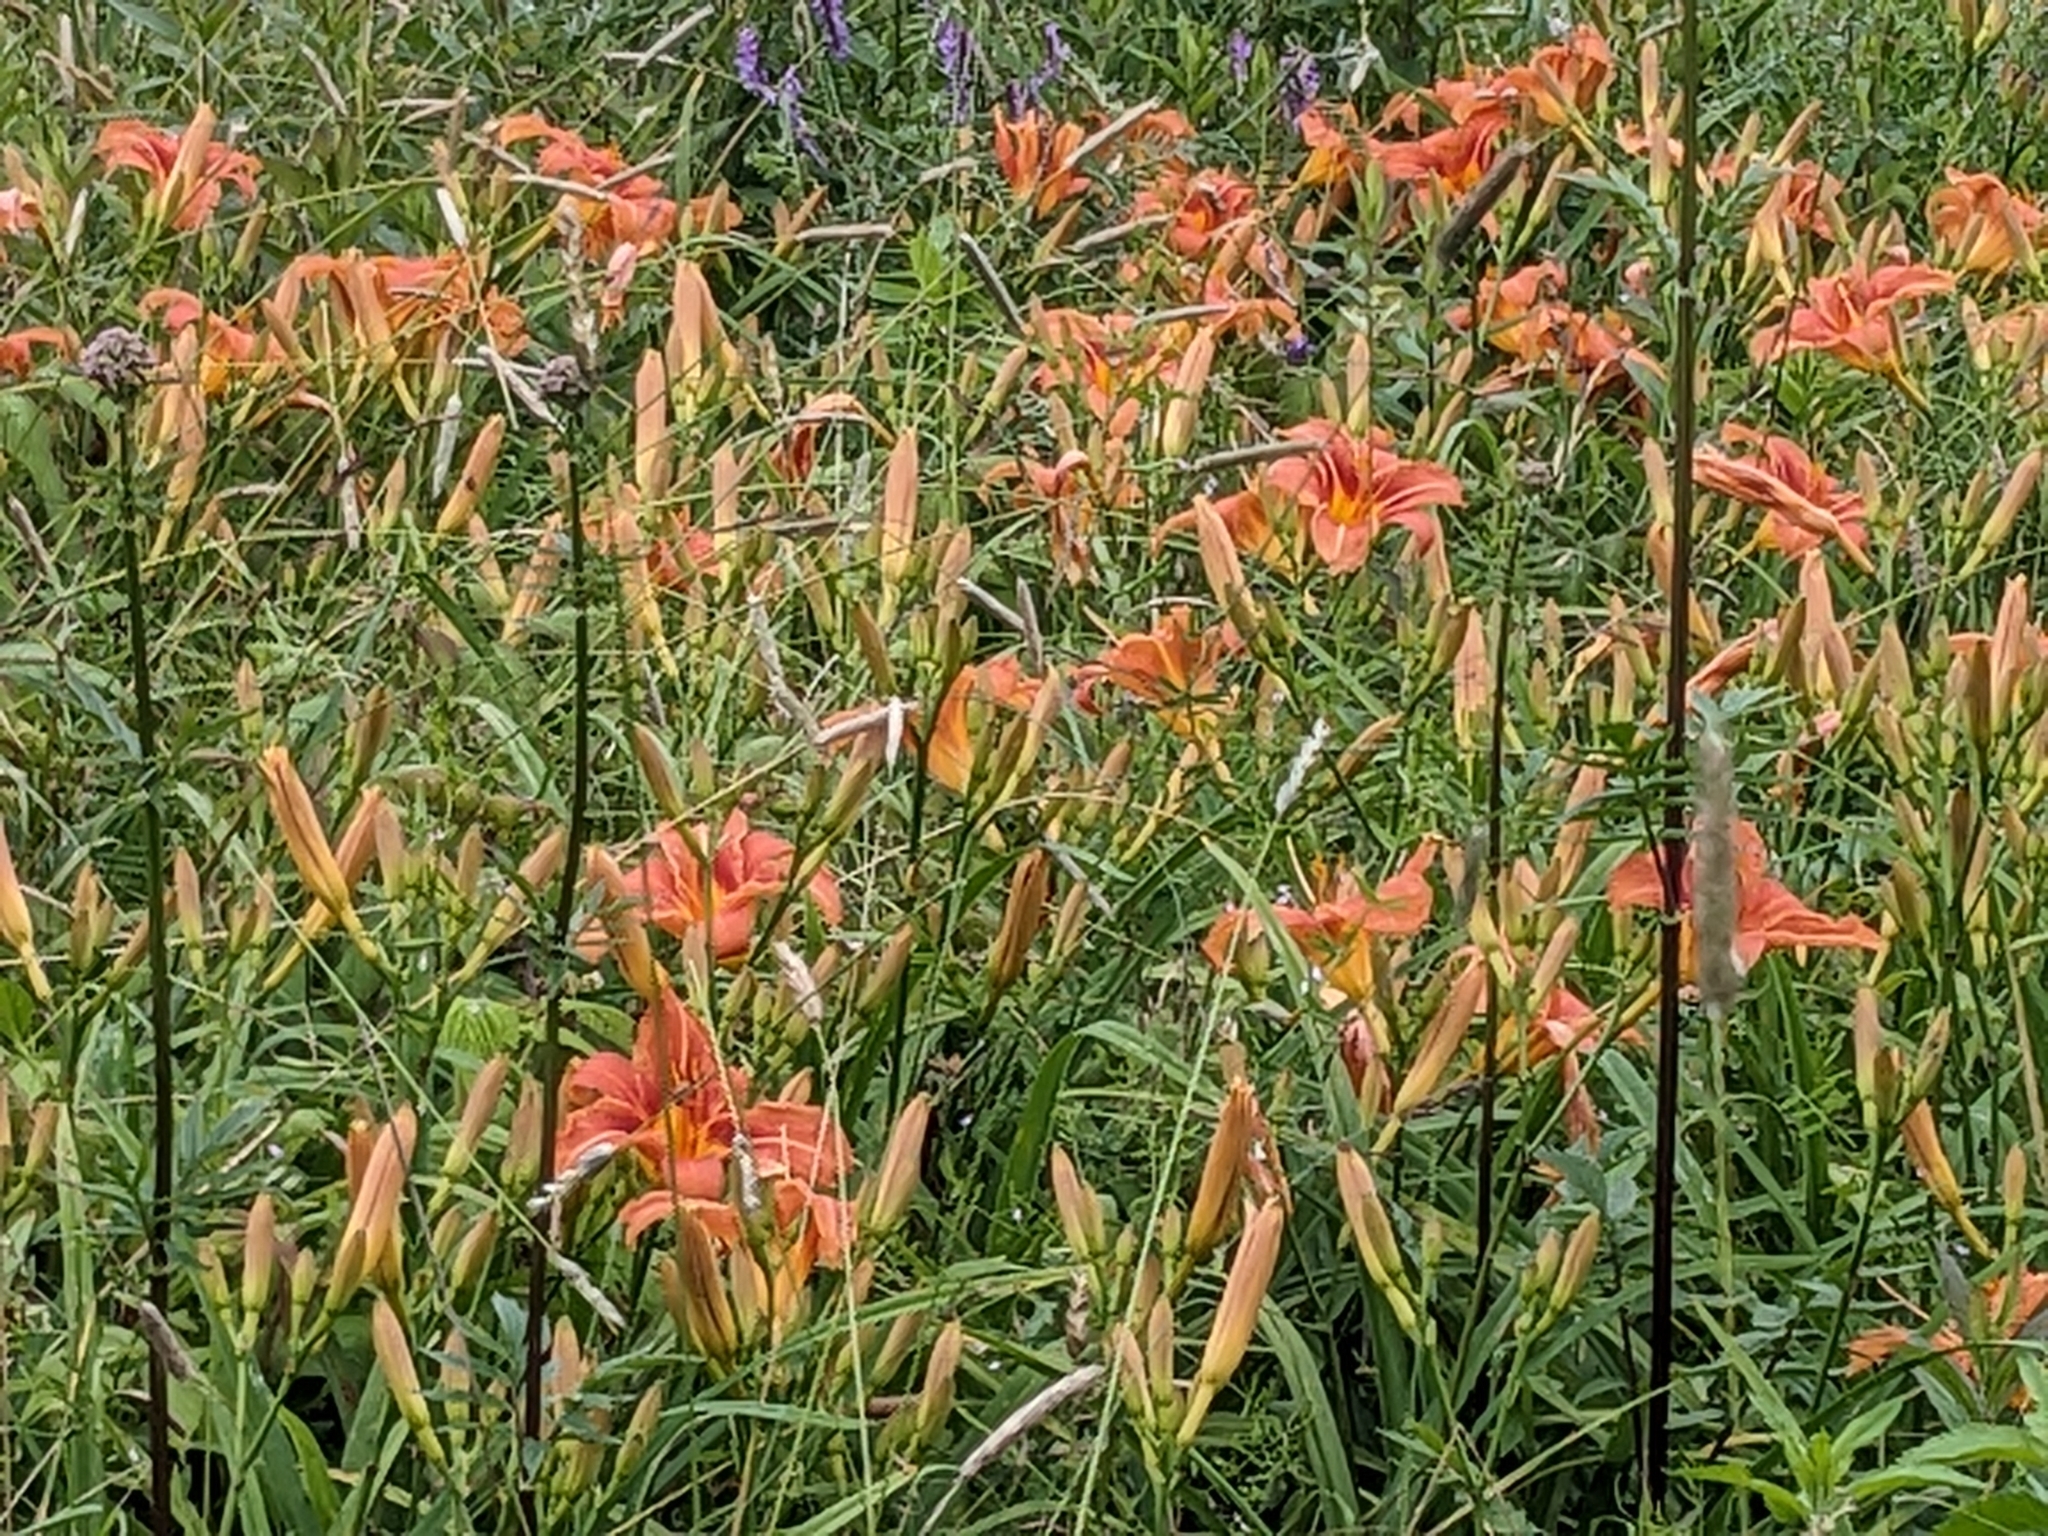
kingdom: Plantae
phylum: Tracheophyta
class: Liliopsida
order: Asparagales
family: Asphodelaceae
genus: Hemerocallis
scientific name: Hemerocallis fulva
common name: Orange day-lily
